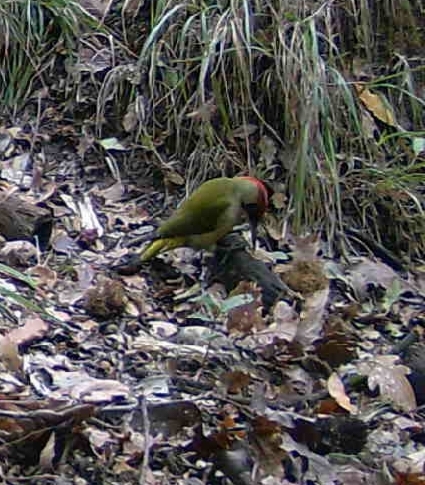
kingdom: Animalia
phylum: Chordata
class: Aves
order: Piciformes
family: Picidae
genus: Picus
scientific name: Picus viridis
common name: European green woodpecker
